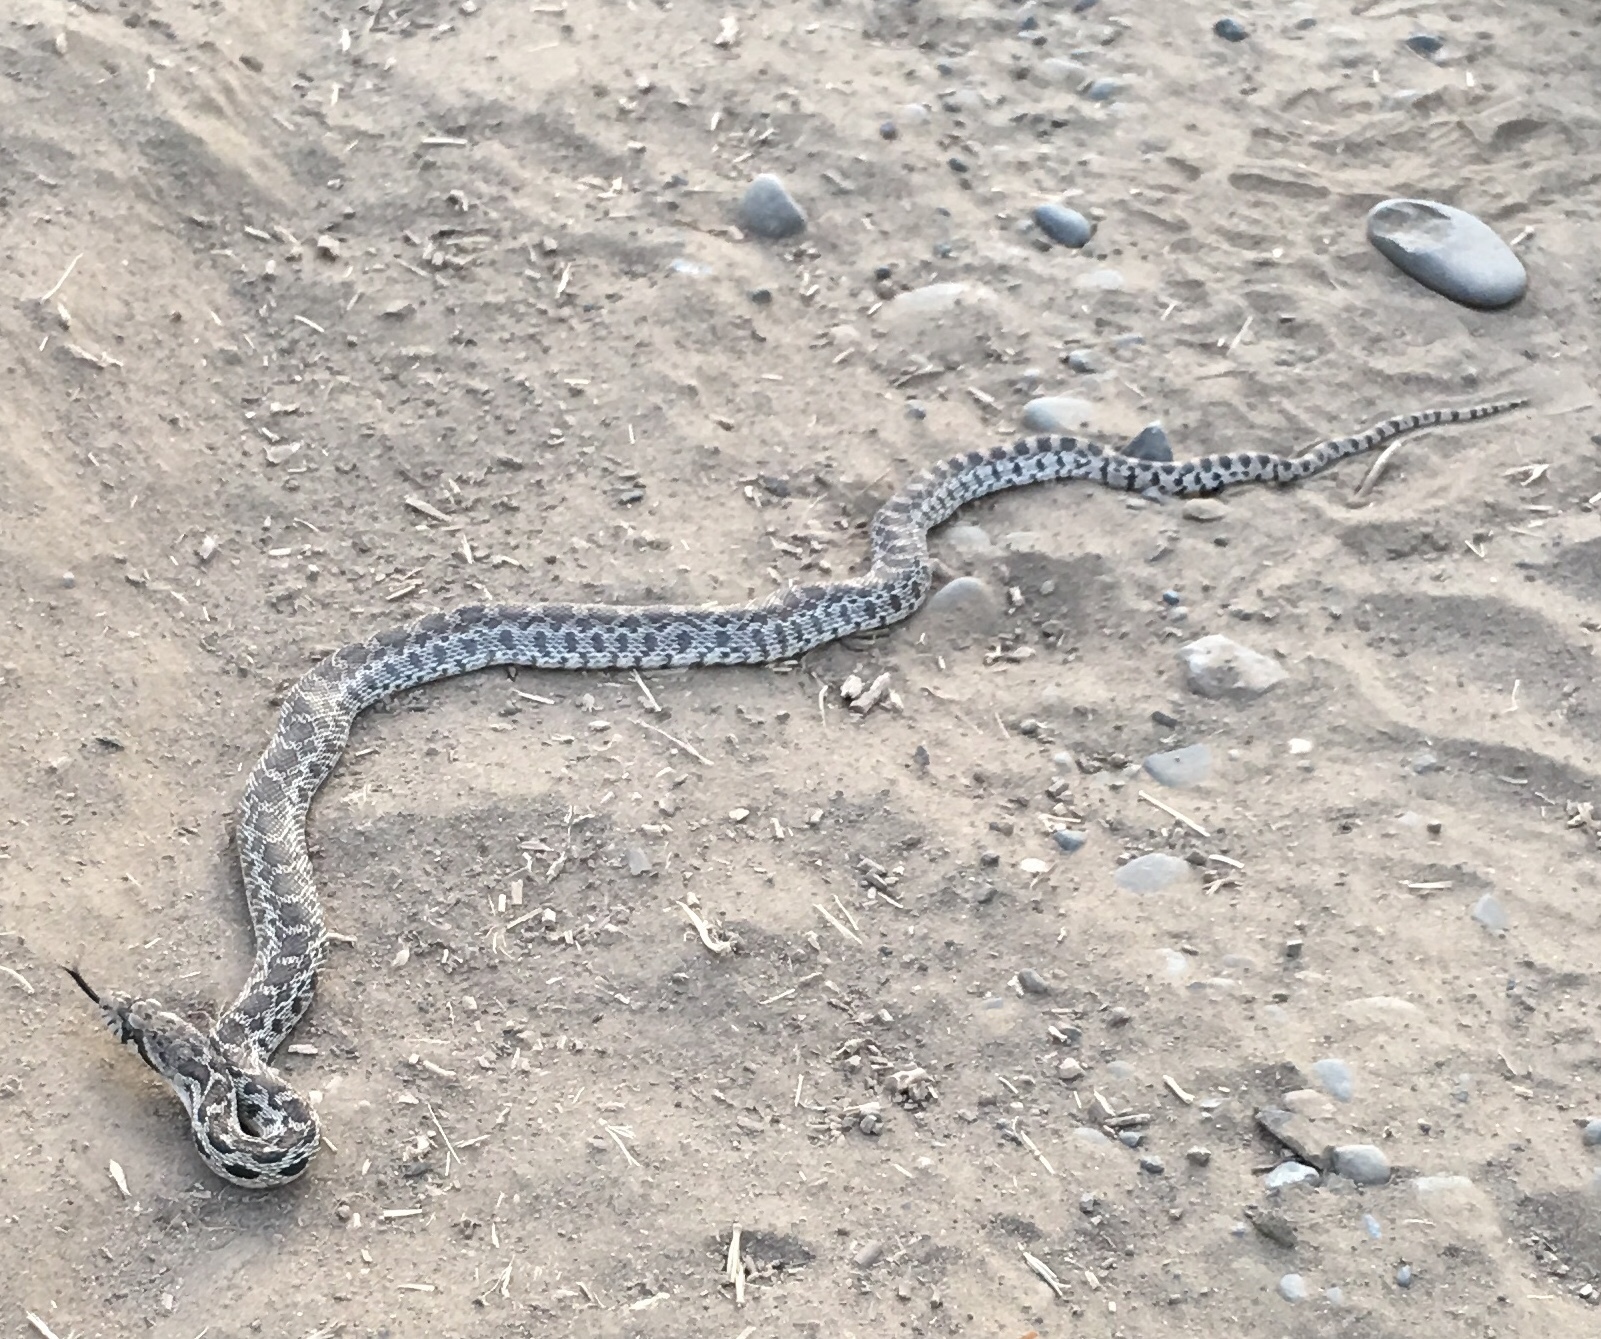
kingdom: Animalia
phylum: Chordata
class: Squamata
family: Colubridae
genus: Pituophis
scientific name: Pituophis catenifer
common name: Gopher snake
